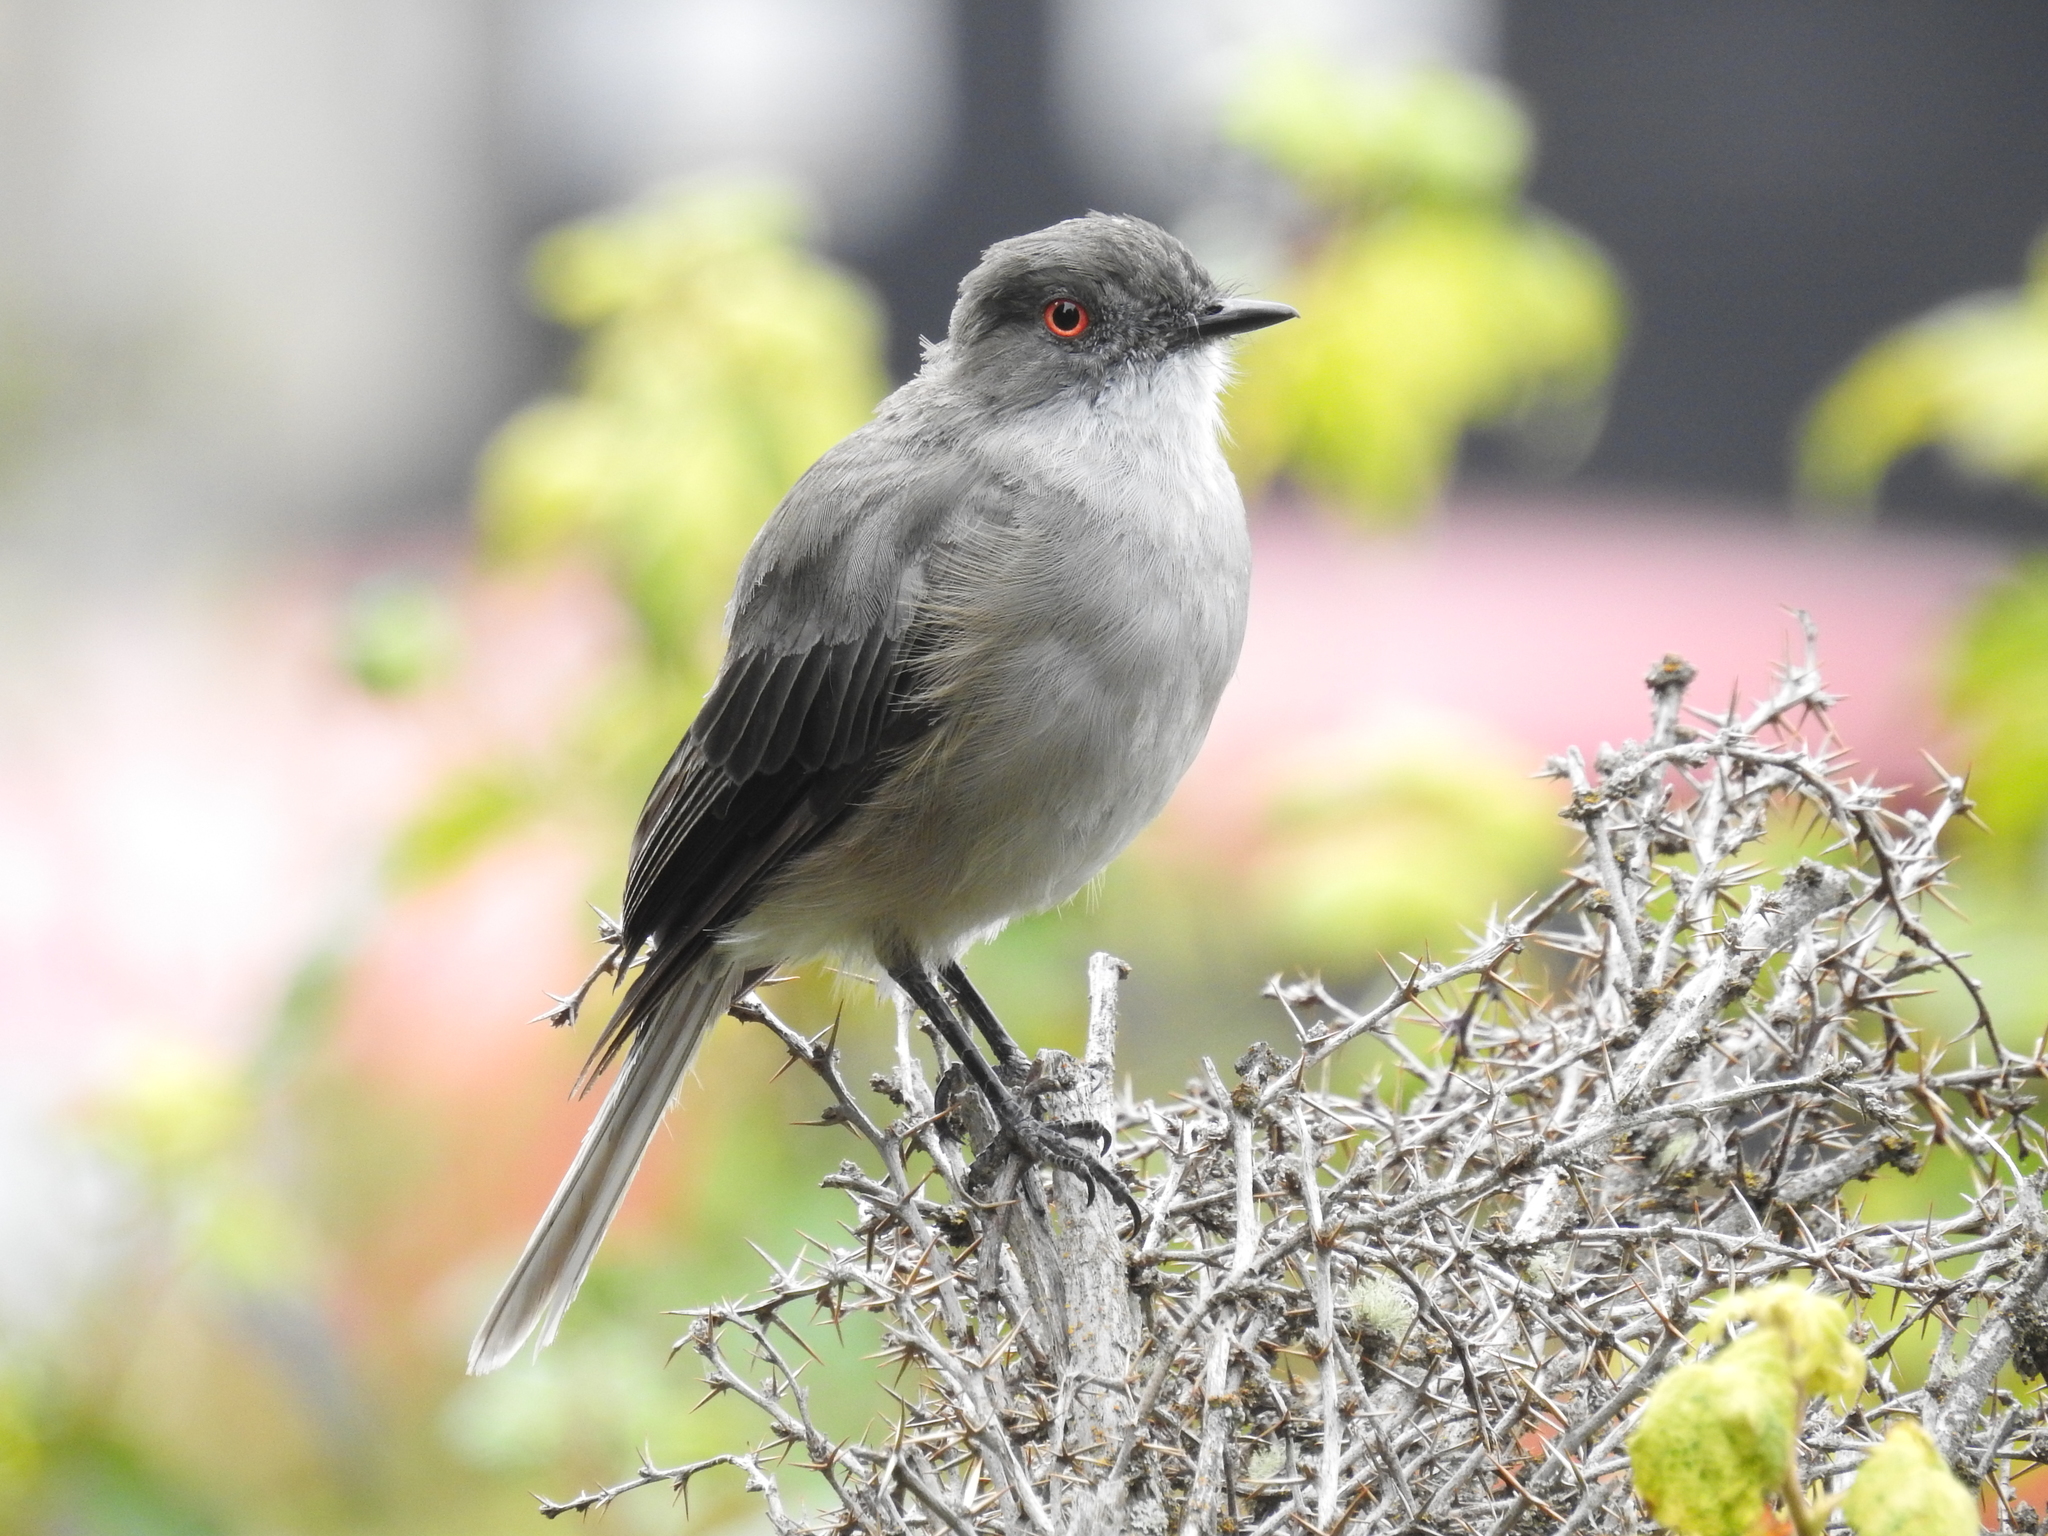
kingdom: Animalia
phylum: Chordata
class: Aves
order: Passeriformes
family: Tyrannidae
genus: Xolmis
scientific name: Xolmis pyrope
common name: Fire-eyed diucon
